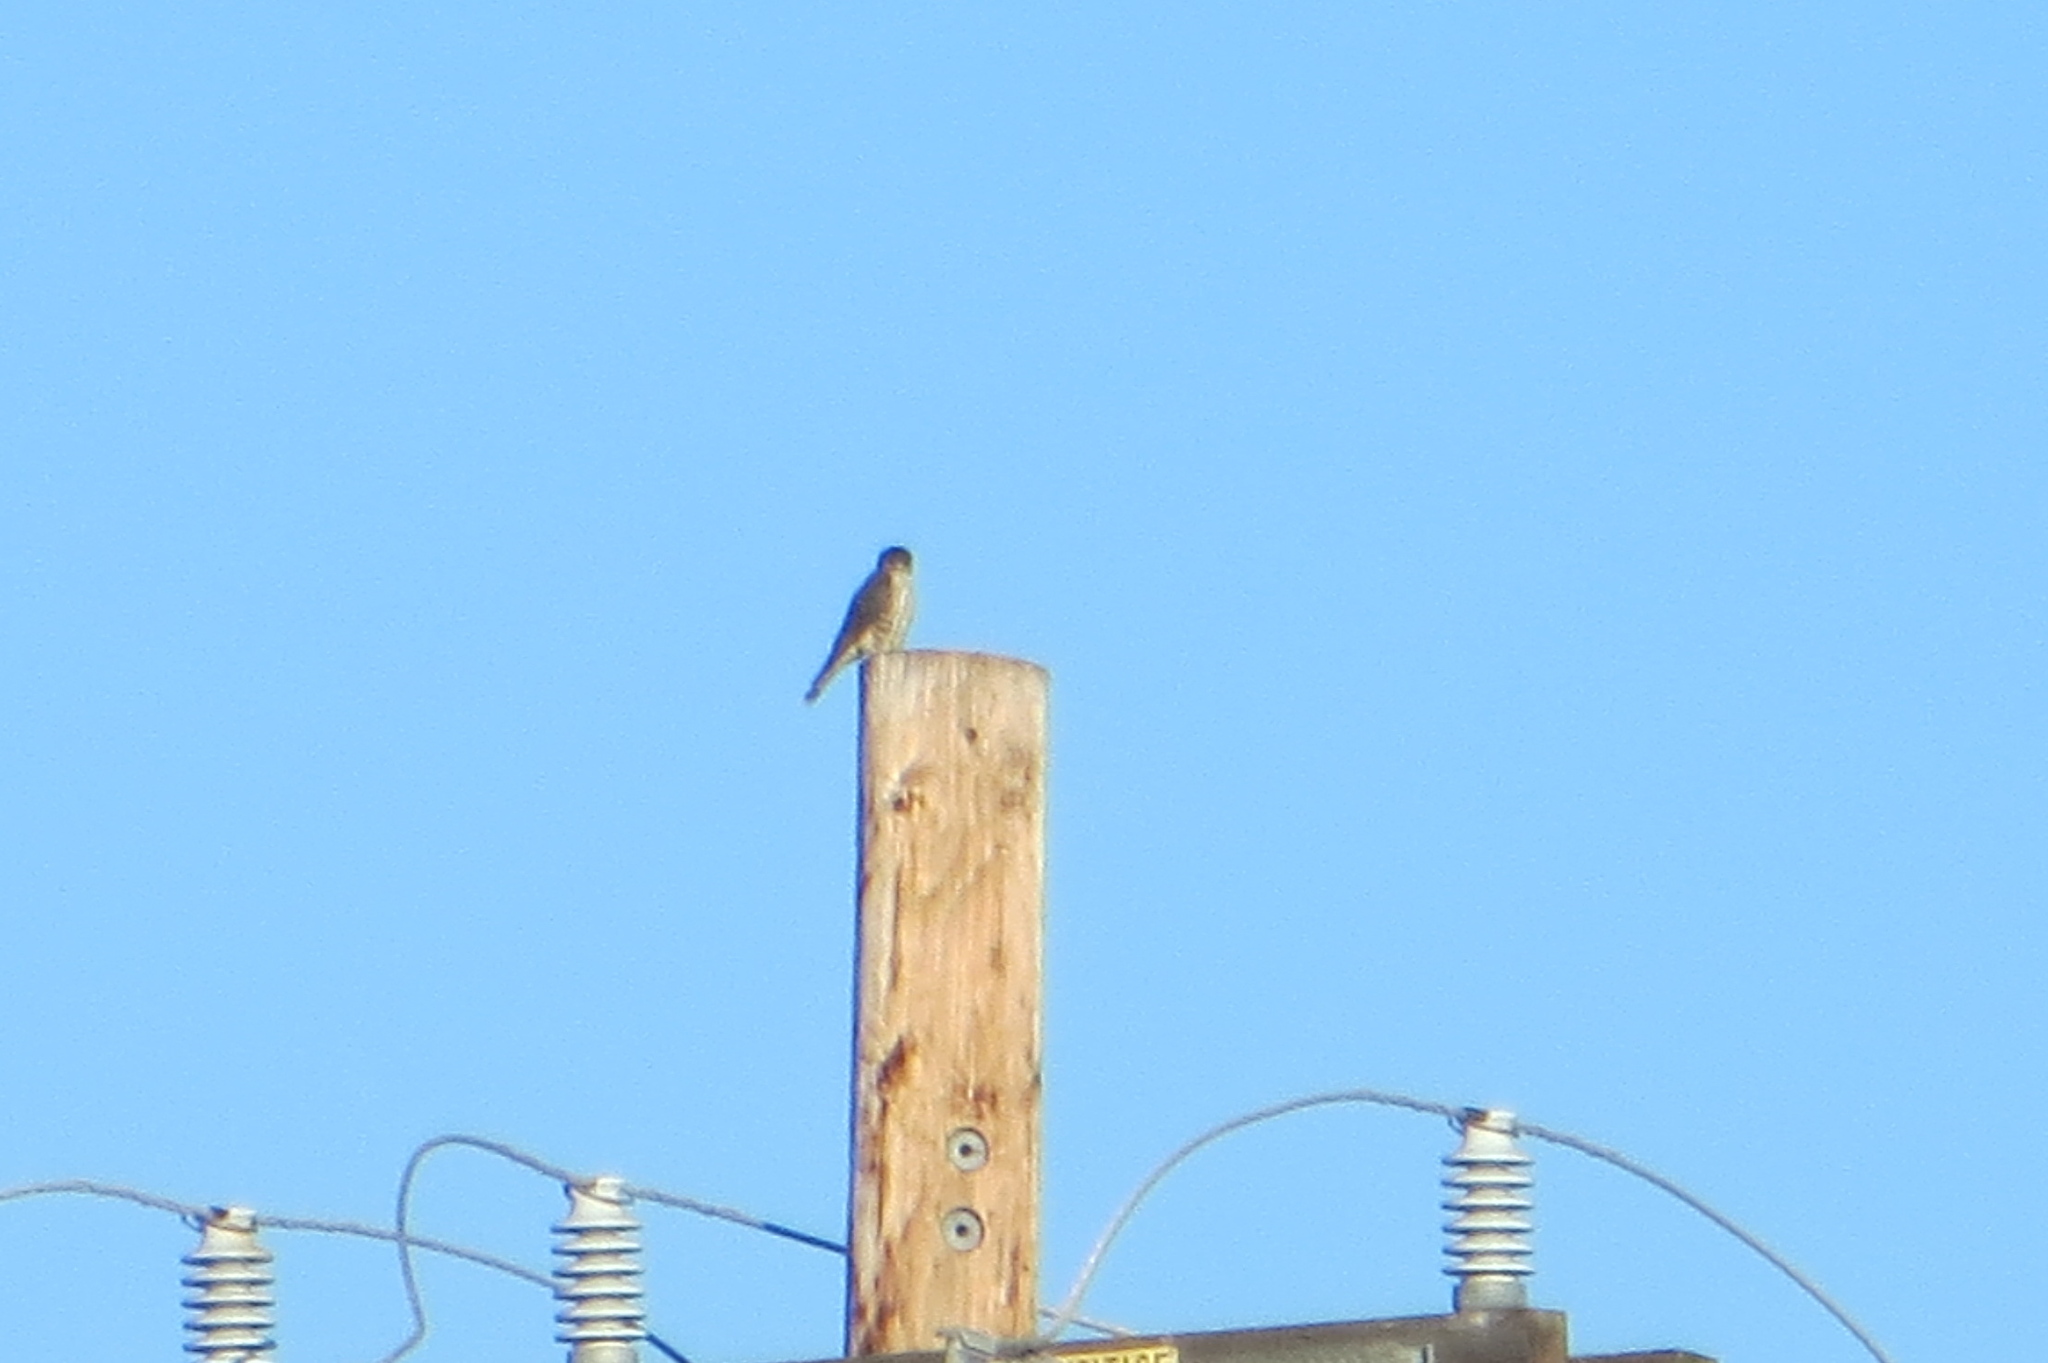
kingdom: Animalia
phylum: Chordata
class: Aves
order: Falconiformes
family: Falconidae
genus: Falco
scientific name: Falco columbarius
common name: Merlin
